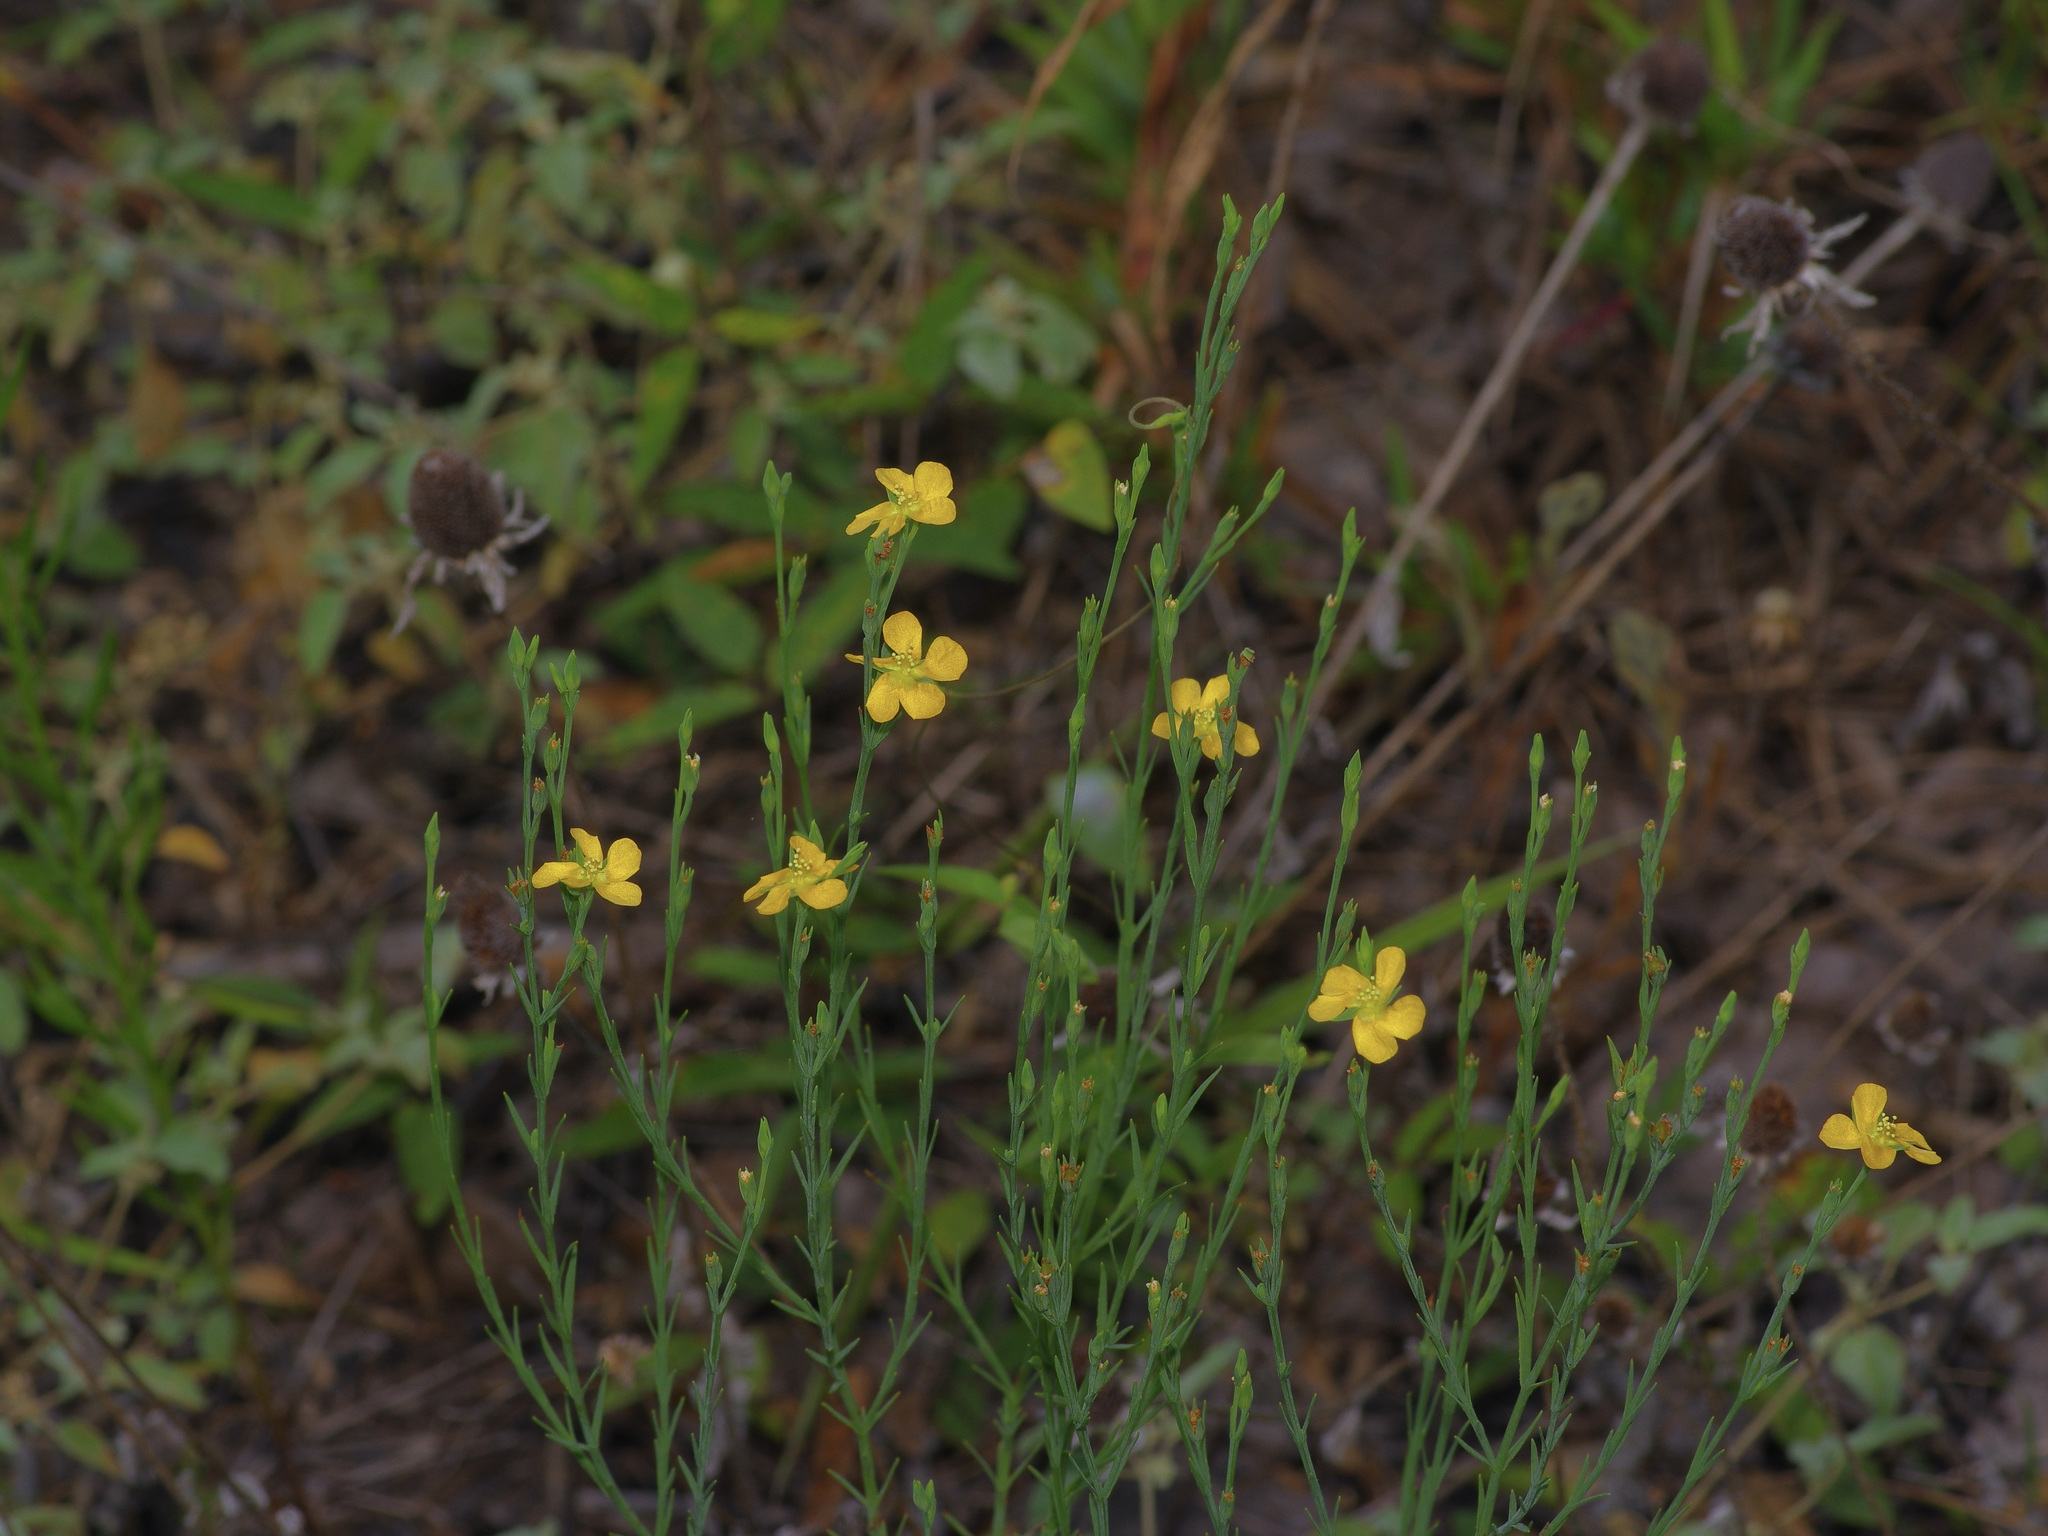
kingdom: Plantae
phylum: Tracheophyta
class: Magnoliopsida
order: Malpighiales
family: Hypericaceae
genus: Hypericum
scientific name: Hypericum drummondii
